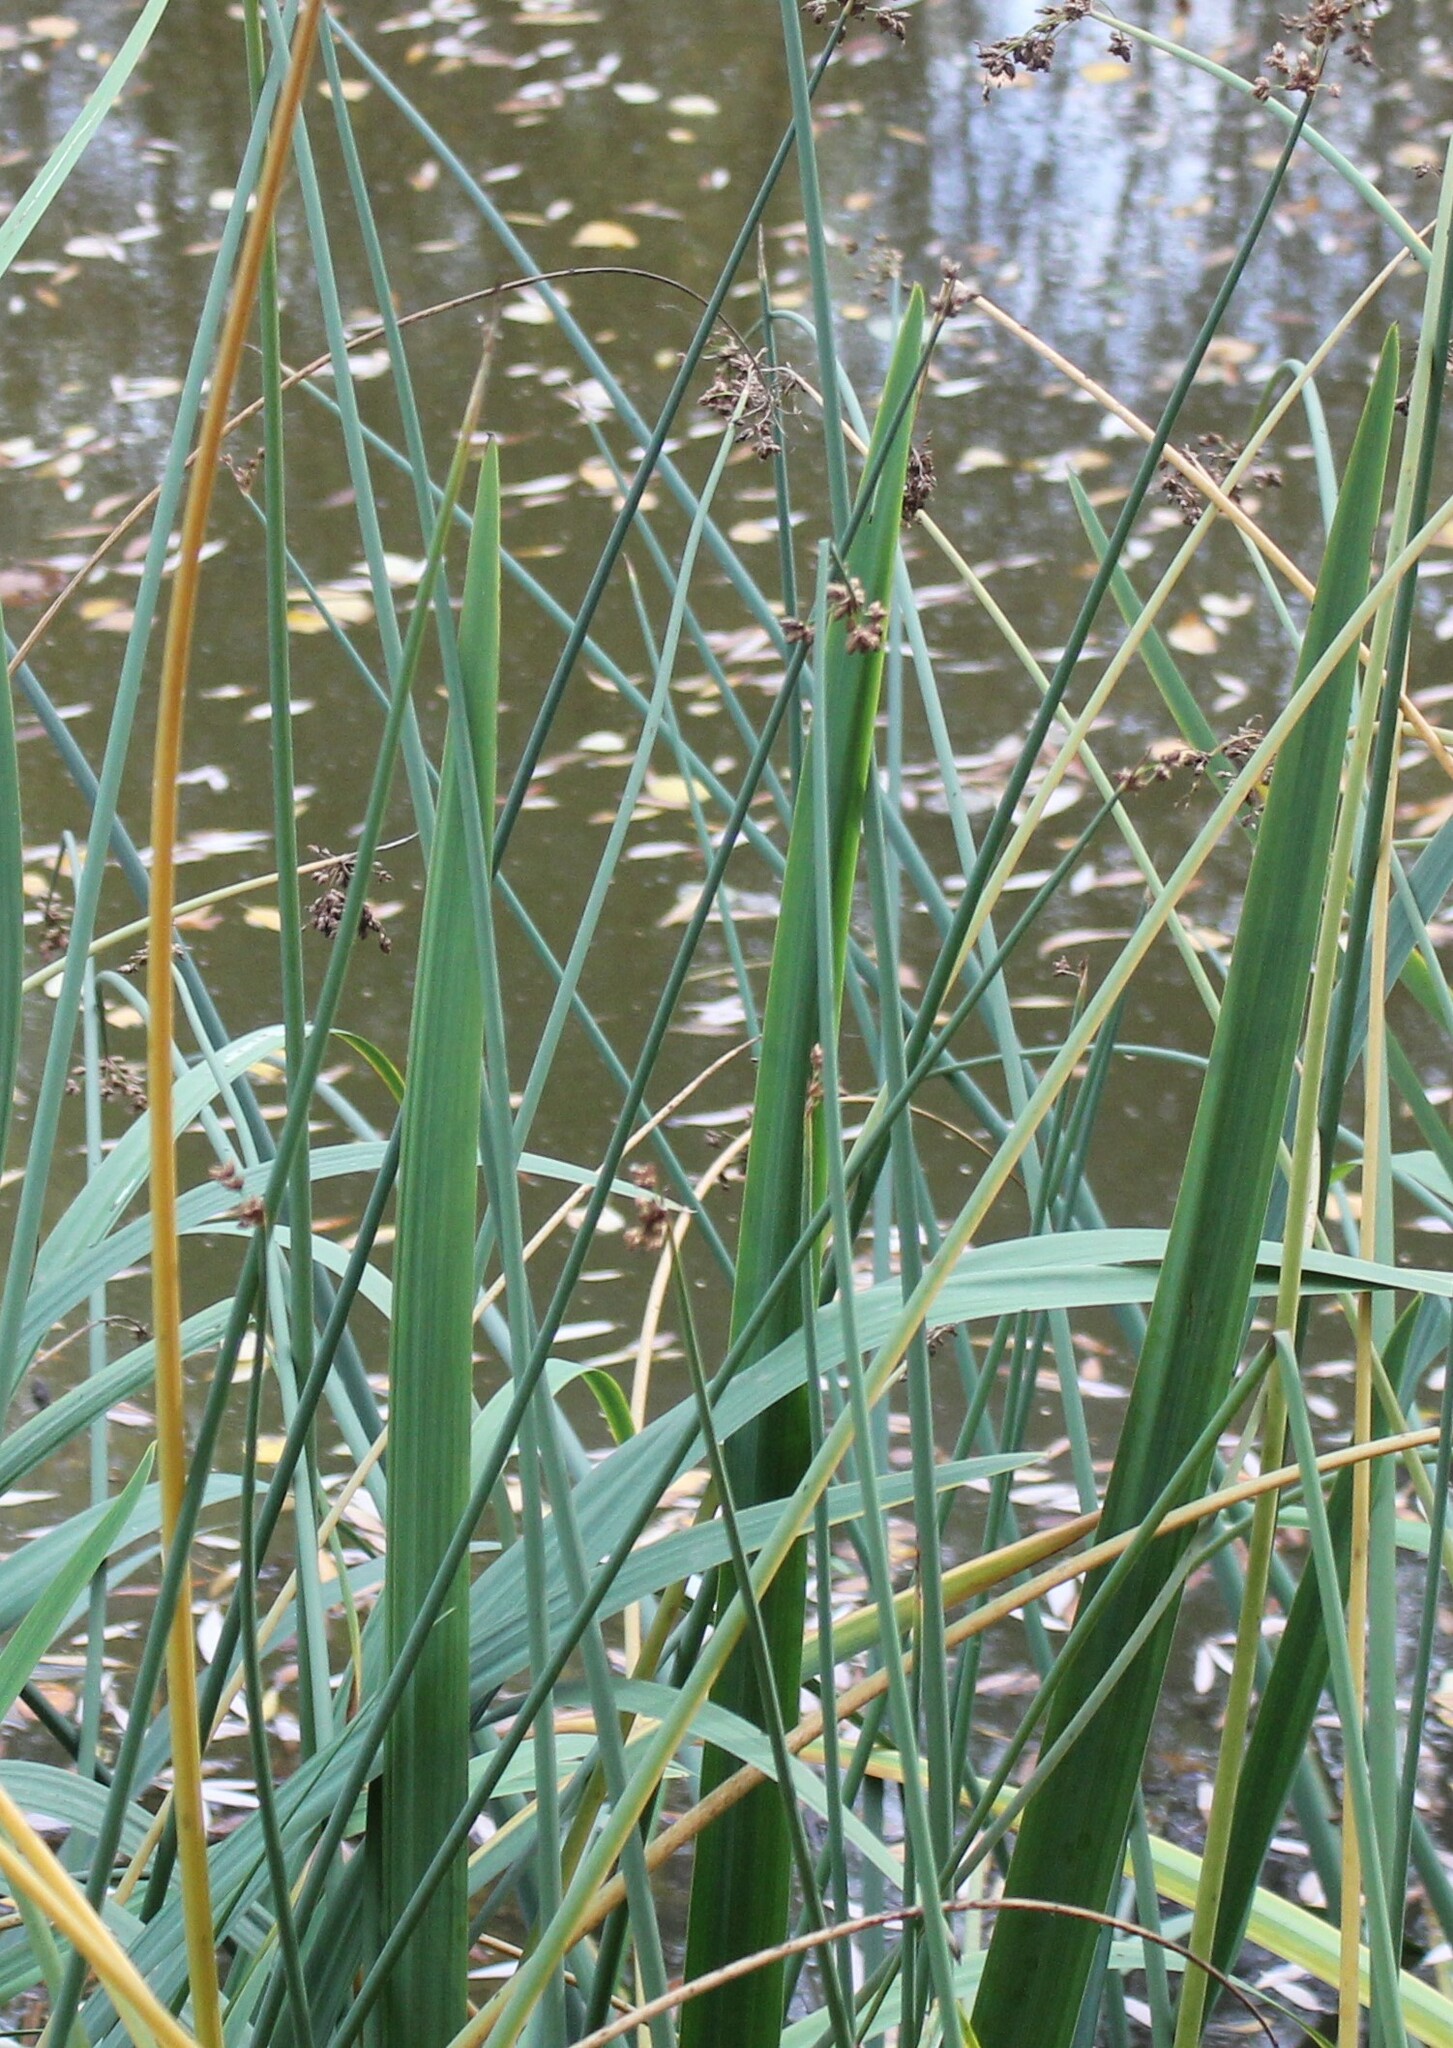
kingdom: Plantae
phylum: Tracheophyta
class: Liliopsida
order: Poales
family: Cyperaceae
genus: Schoenoplectus
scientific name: Schoenoplectus lacustris
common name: Common club-rush
